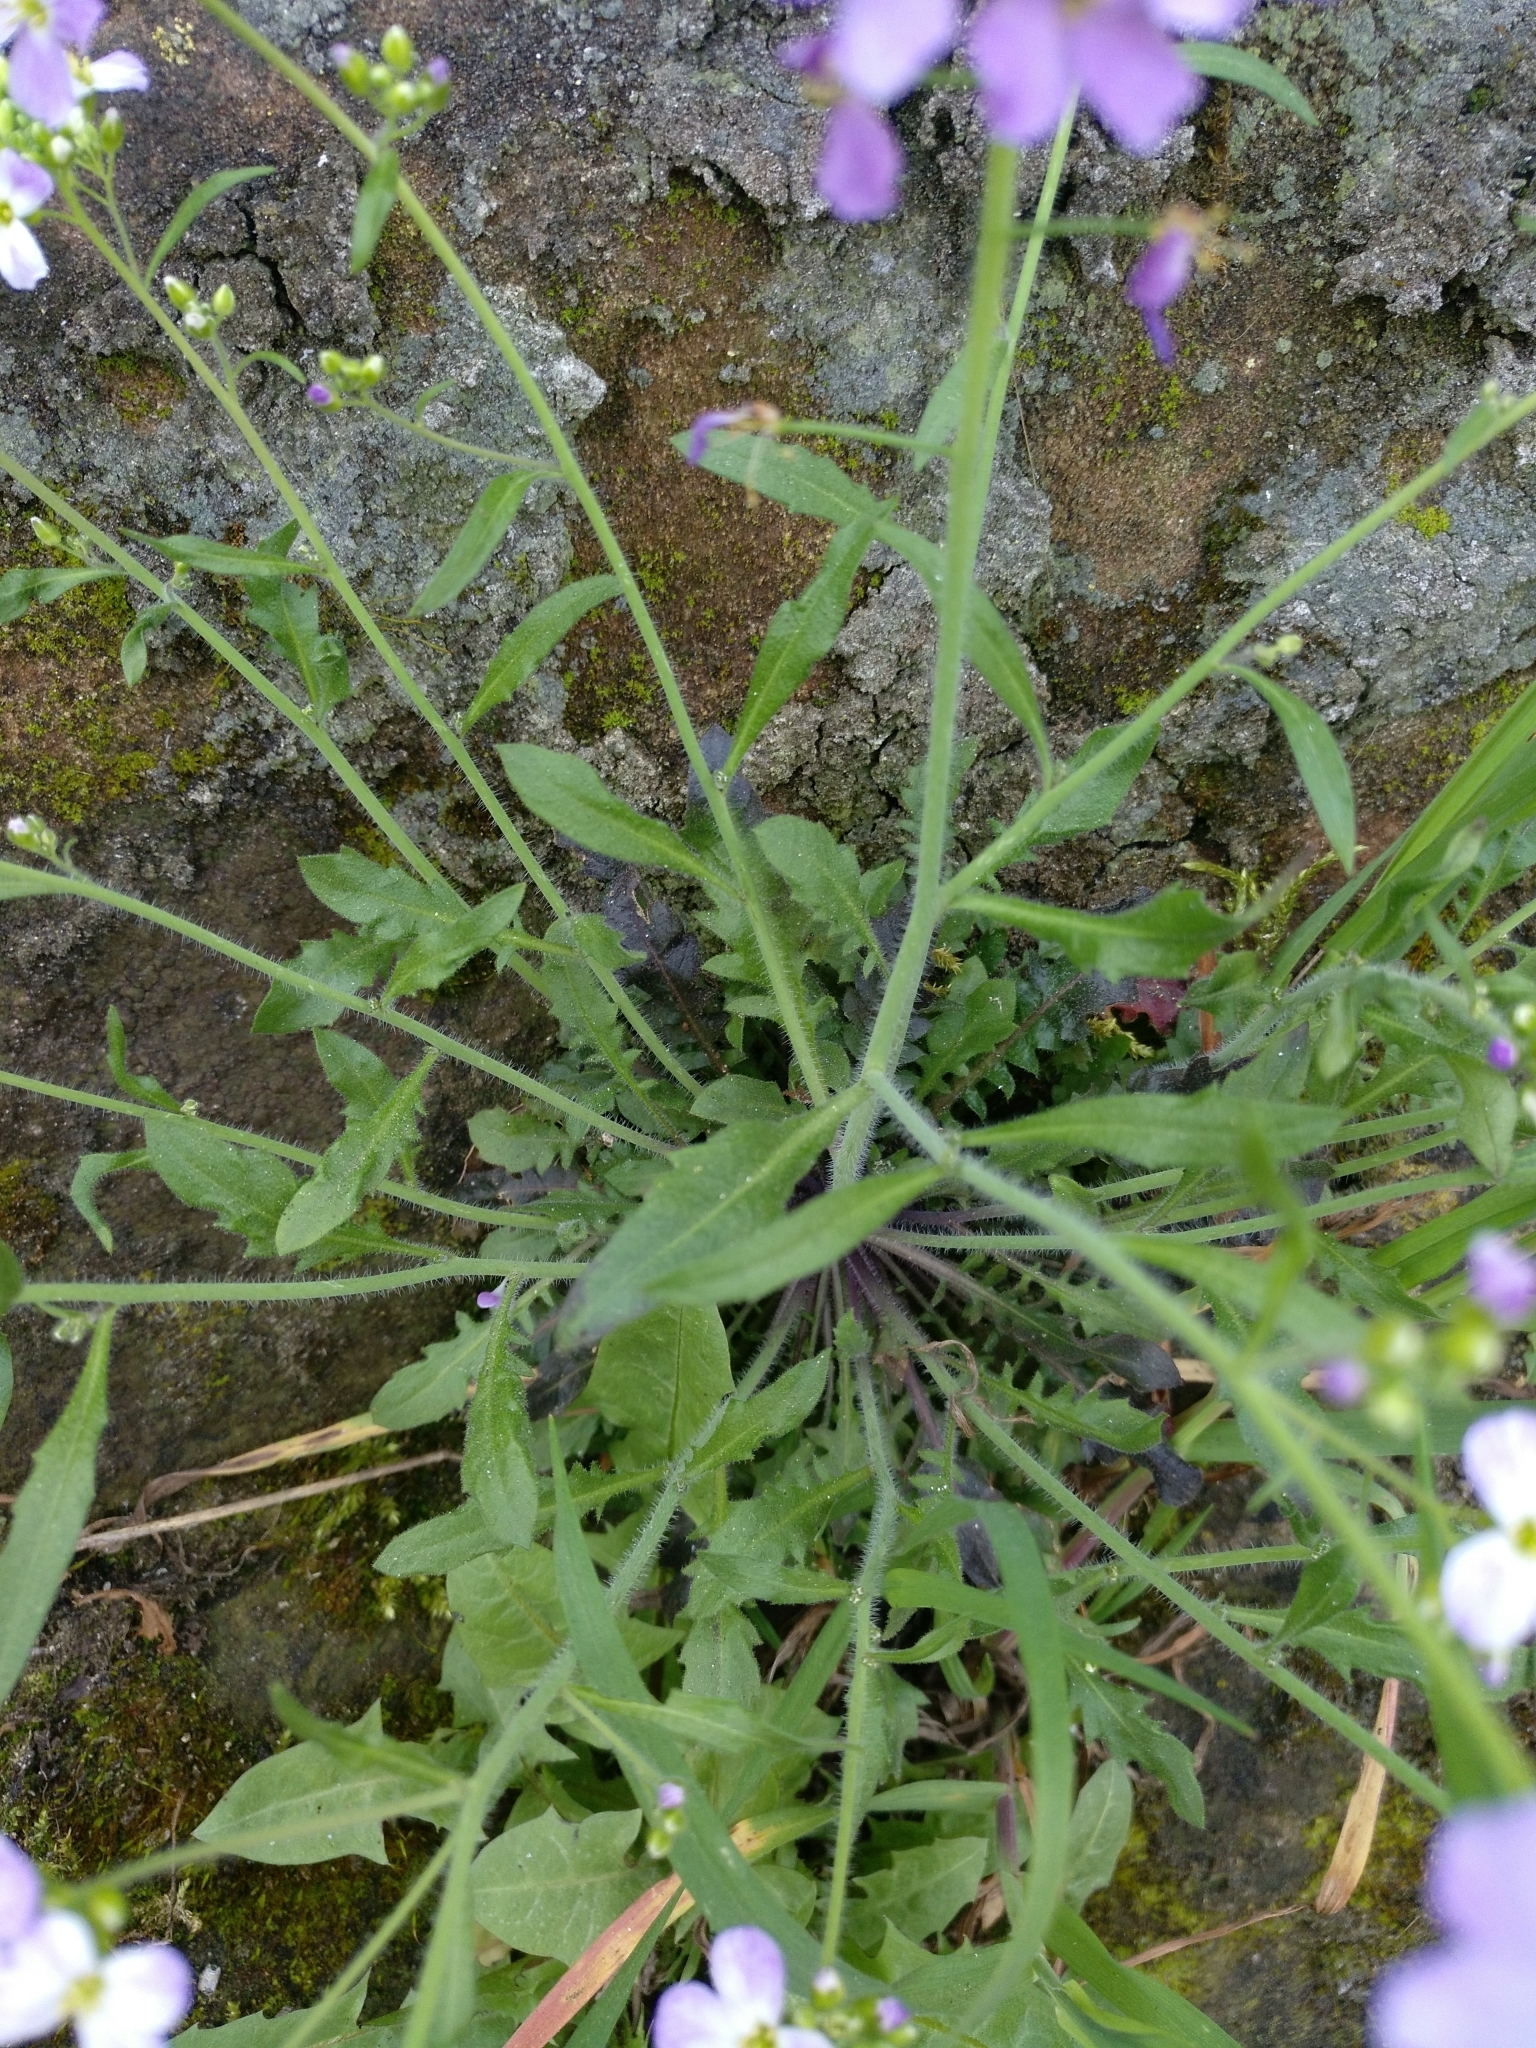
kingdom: Plantae
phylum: Tracheophyta
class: Magnoliopsida
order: Brassicales
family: Brassicaceae
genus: Arabidopsis
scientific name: Arabidopsis arenosa
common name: Sand rock-cress
